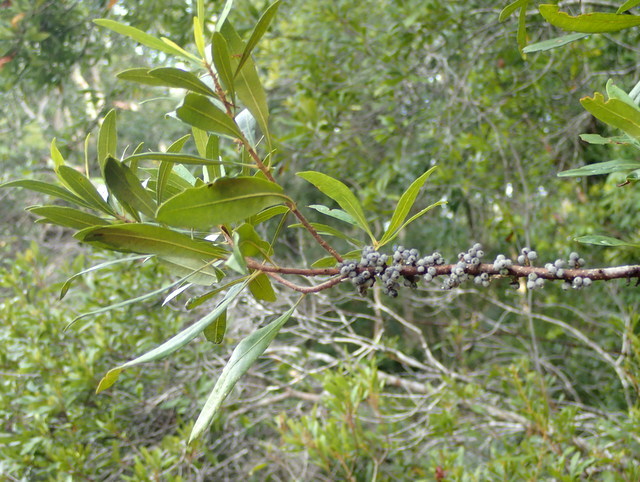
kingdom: Plantae
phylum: Tracheophyta
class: Magnoliopsida
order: Fagales
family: Myricaceae
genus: Morella
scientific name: Morella cerifera
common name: Wax myrtle
